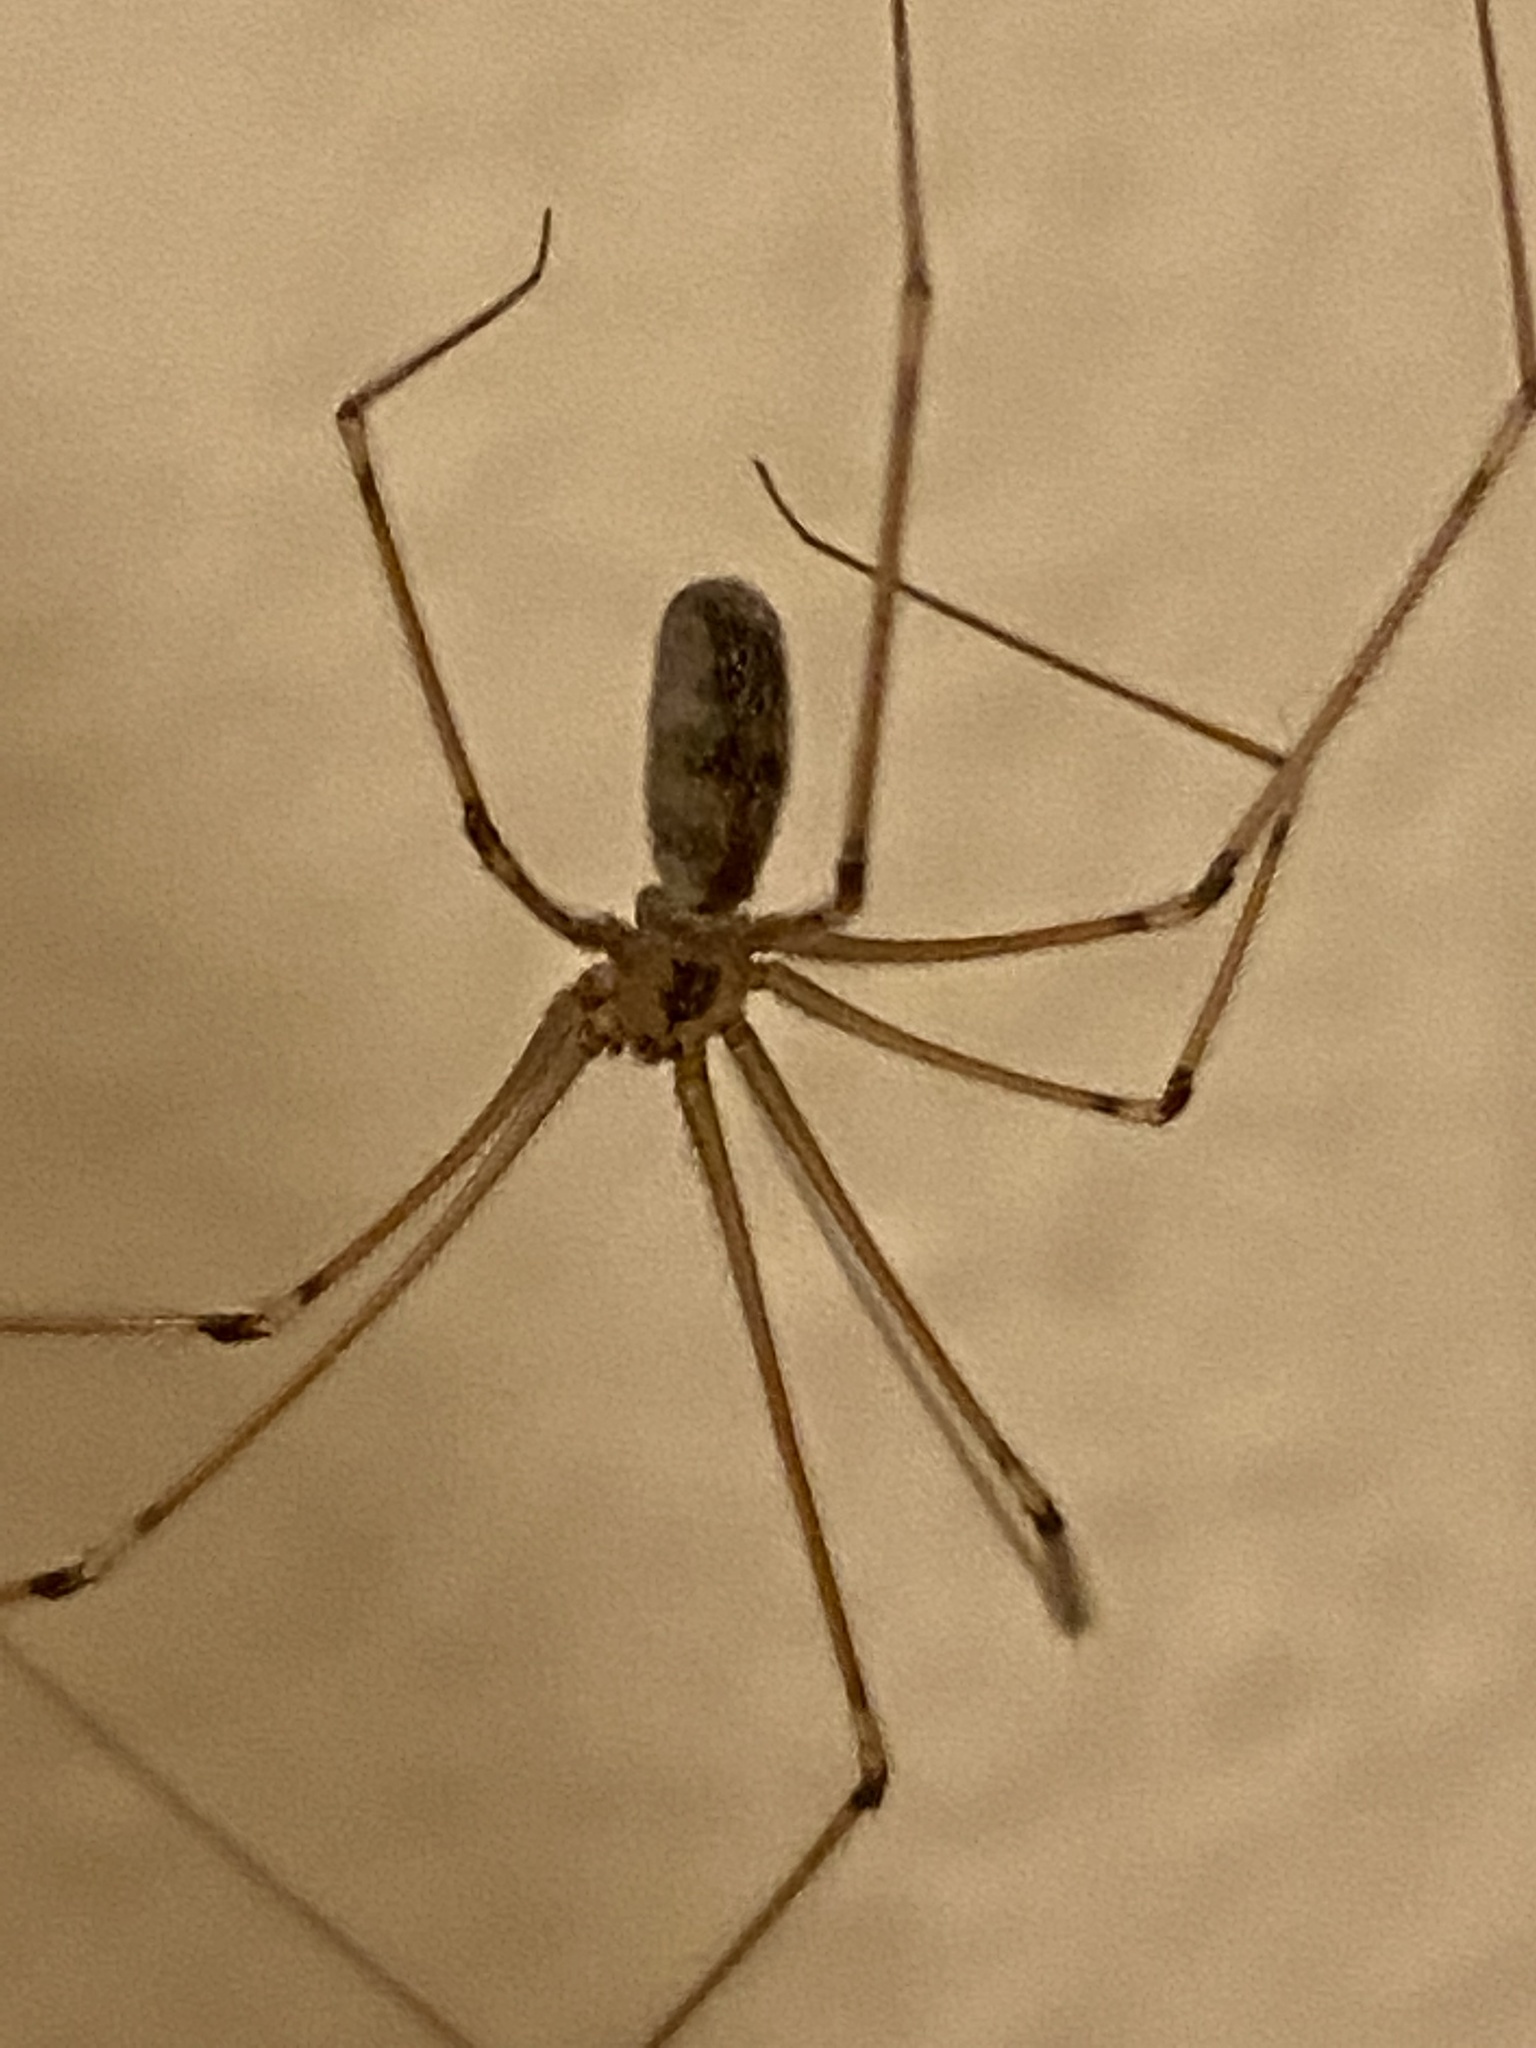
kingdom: Animalia
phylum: Arthropoda
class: Arachnida
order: Araneae
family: Pholcidae
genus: Pholcus
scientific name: Pholcus phalangioides
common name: Longbodied cellar spider
